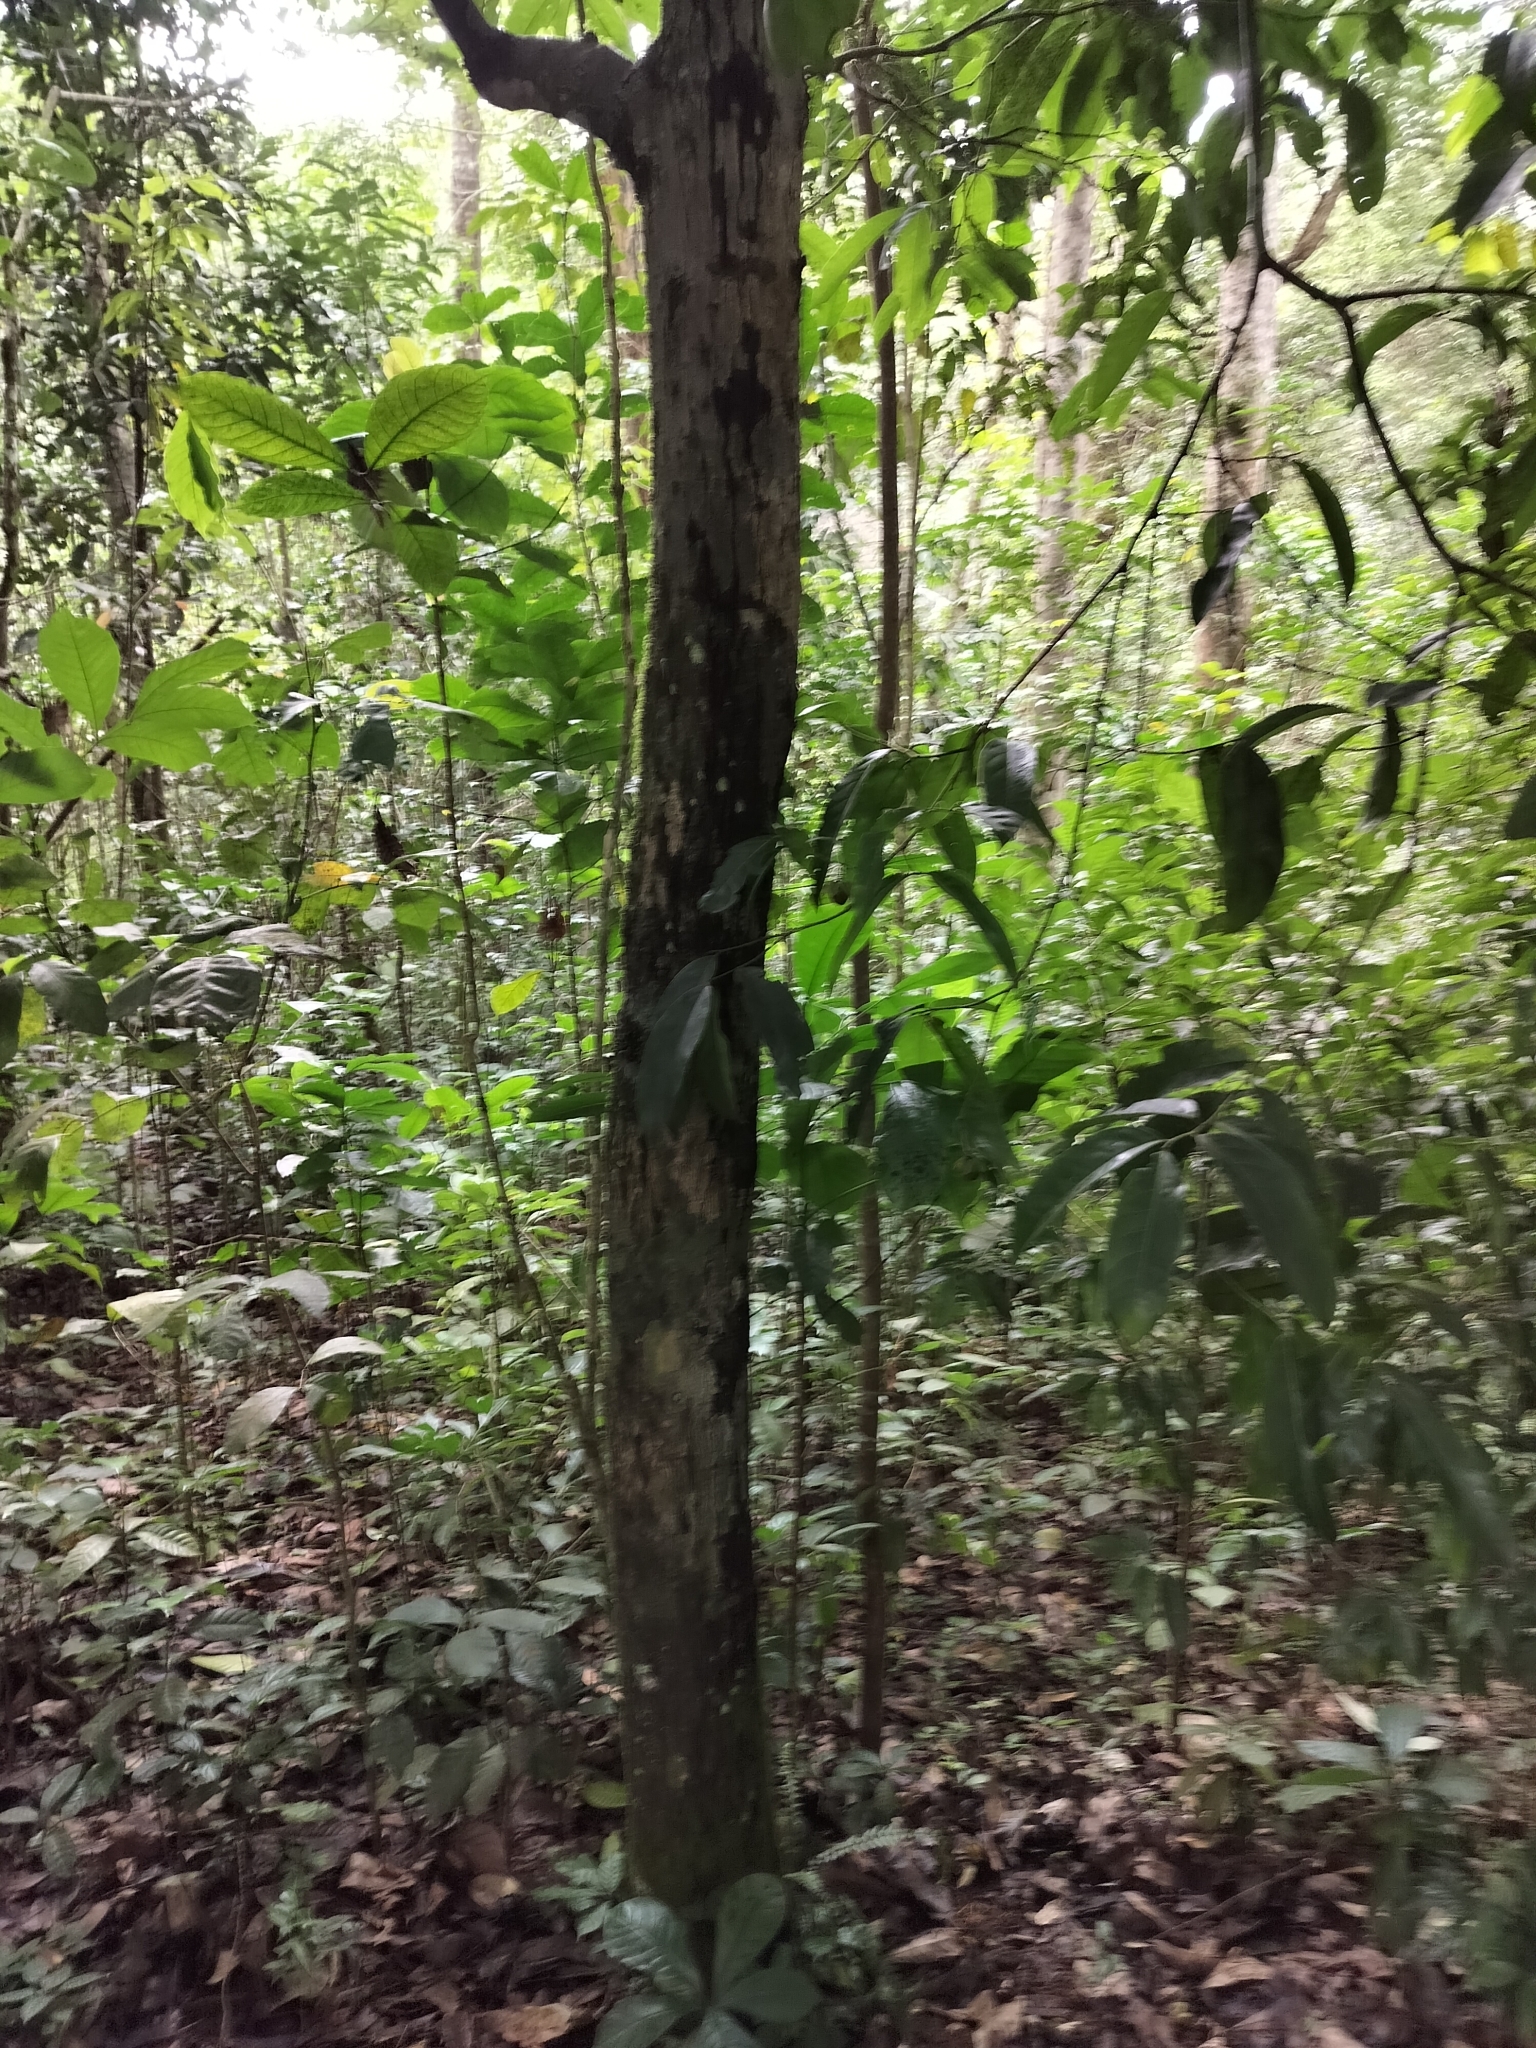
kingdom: Plantae
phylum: Tracheophyta
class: Magnoliopsida
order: Ericales
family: Ebenaceae
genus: Diospyros
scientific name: Diospyros paniculata
